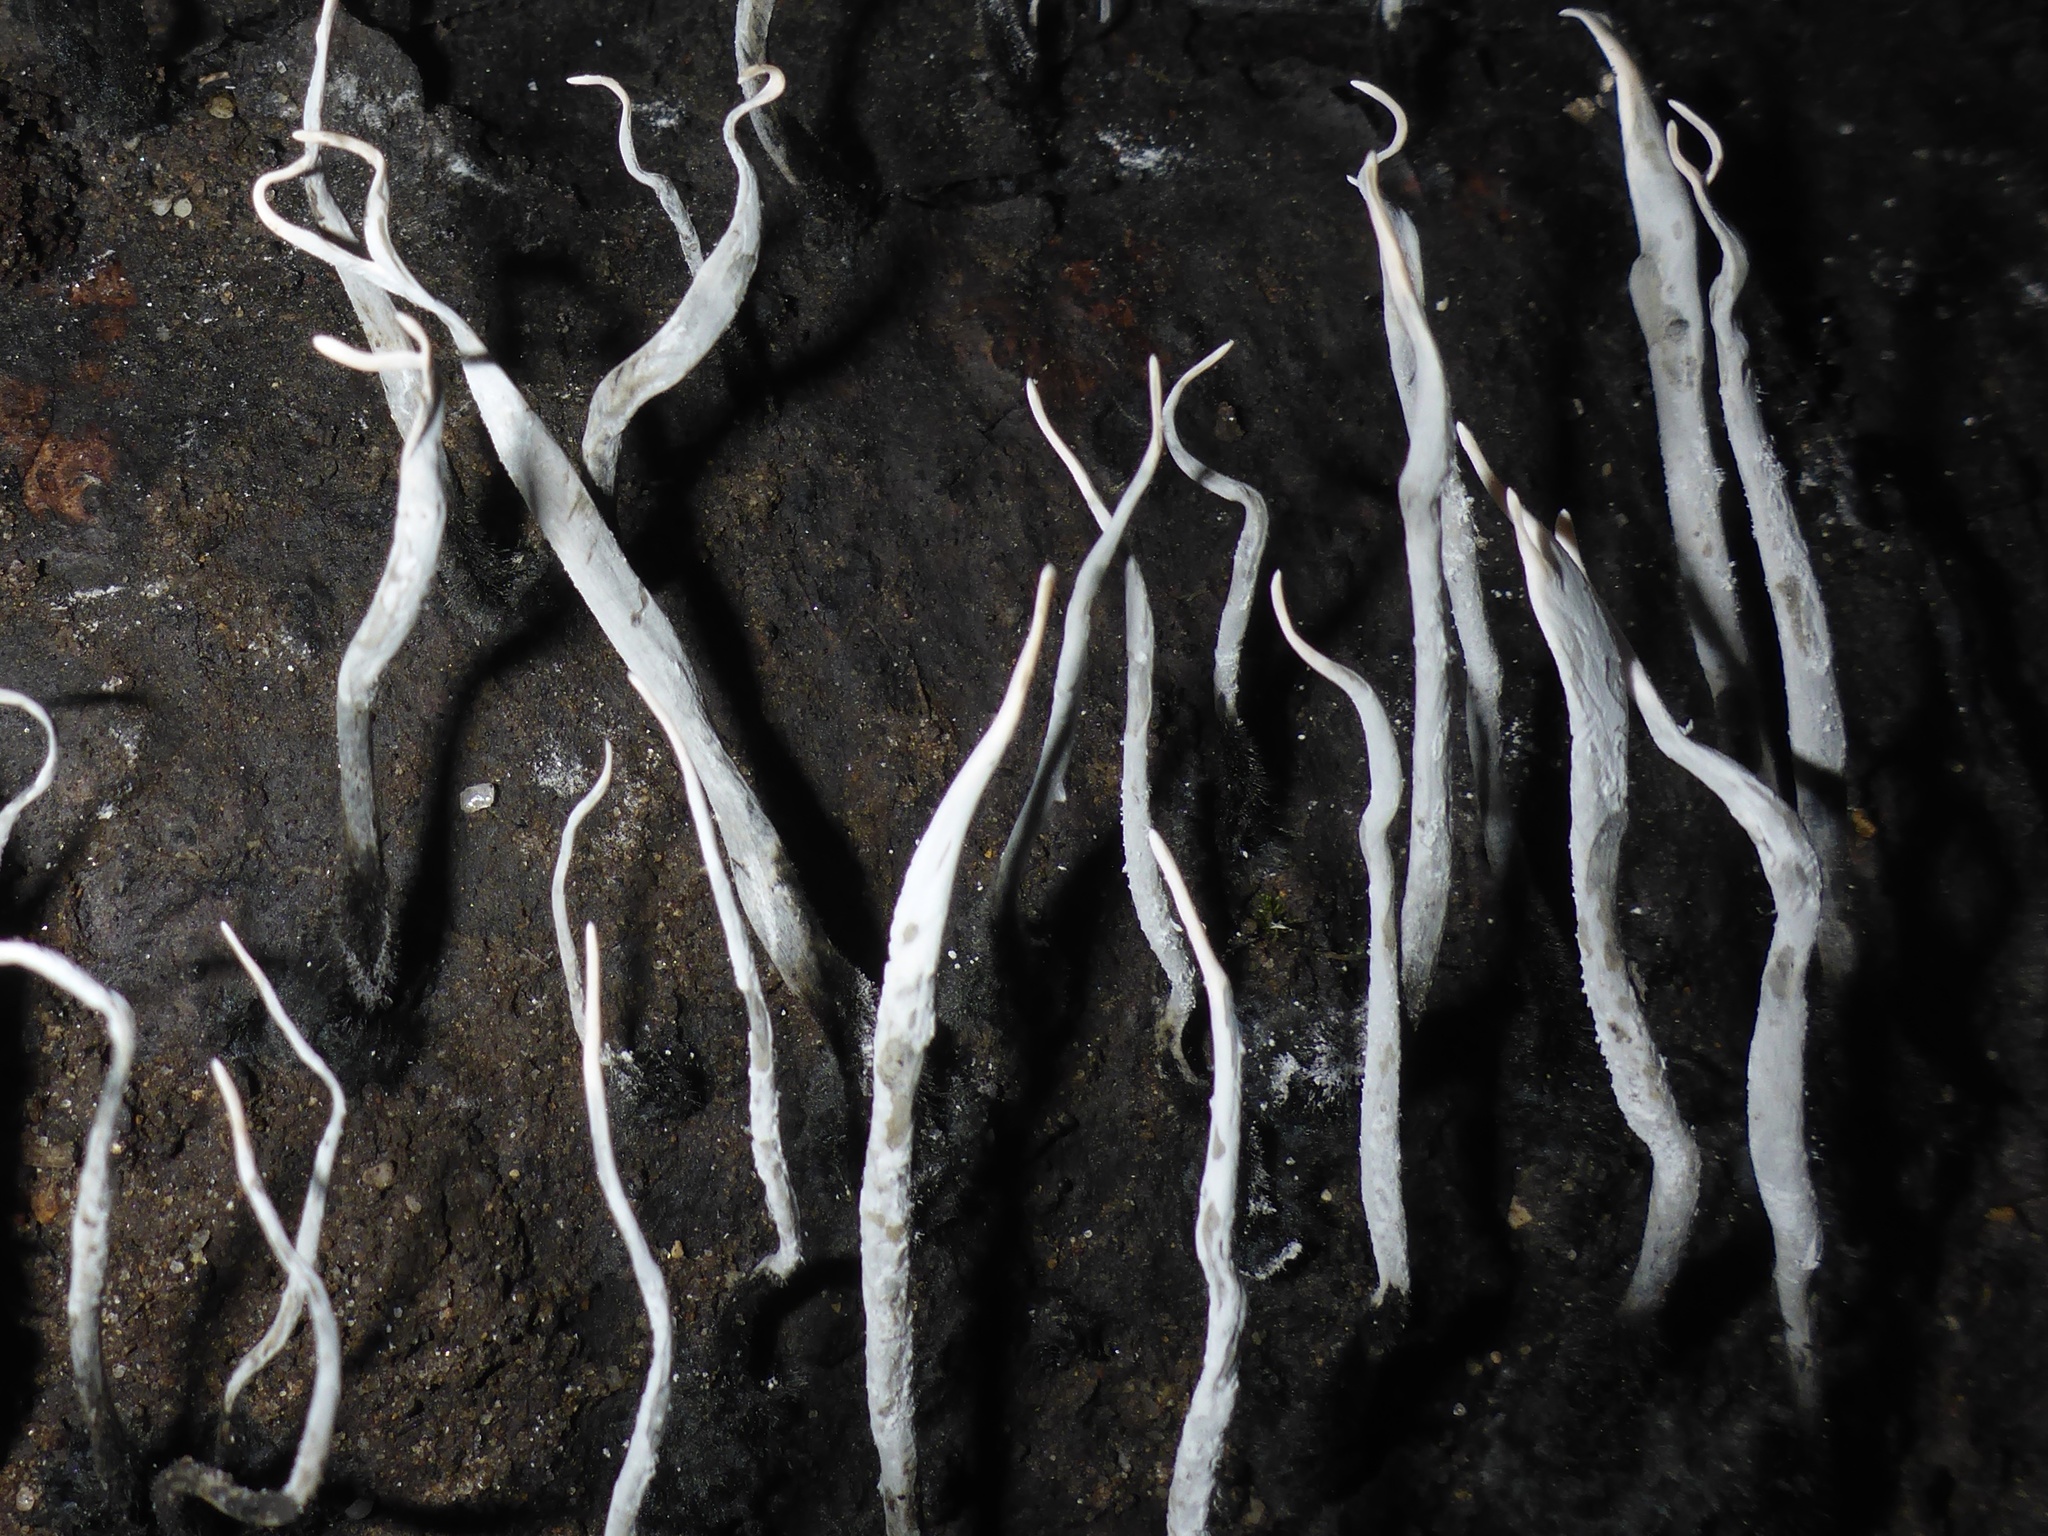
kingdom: Fungi
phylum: Ascomycota
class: Sordariomycetes
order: Xylariales
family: Xylariaceae
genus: Xylaria
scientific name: Xylaria hypoxylon
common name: Candle-snuff fungus
